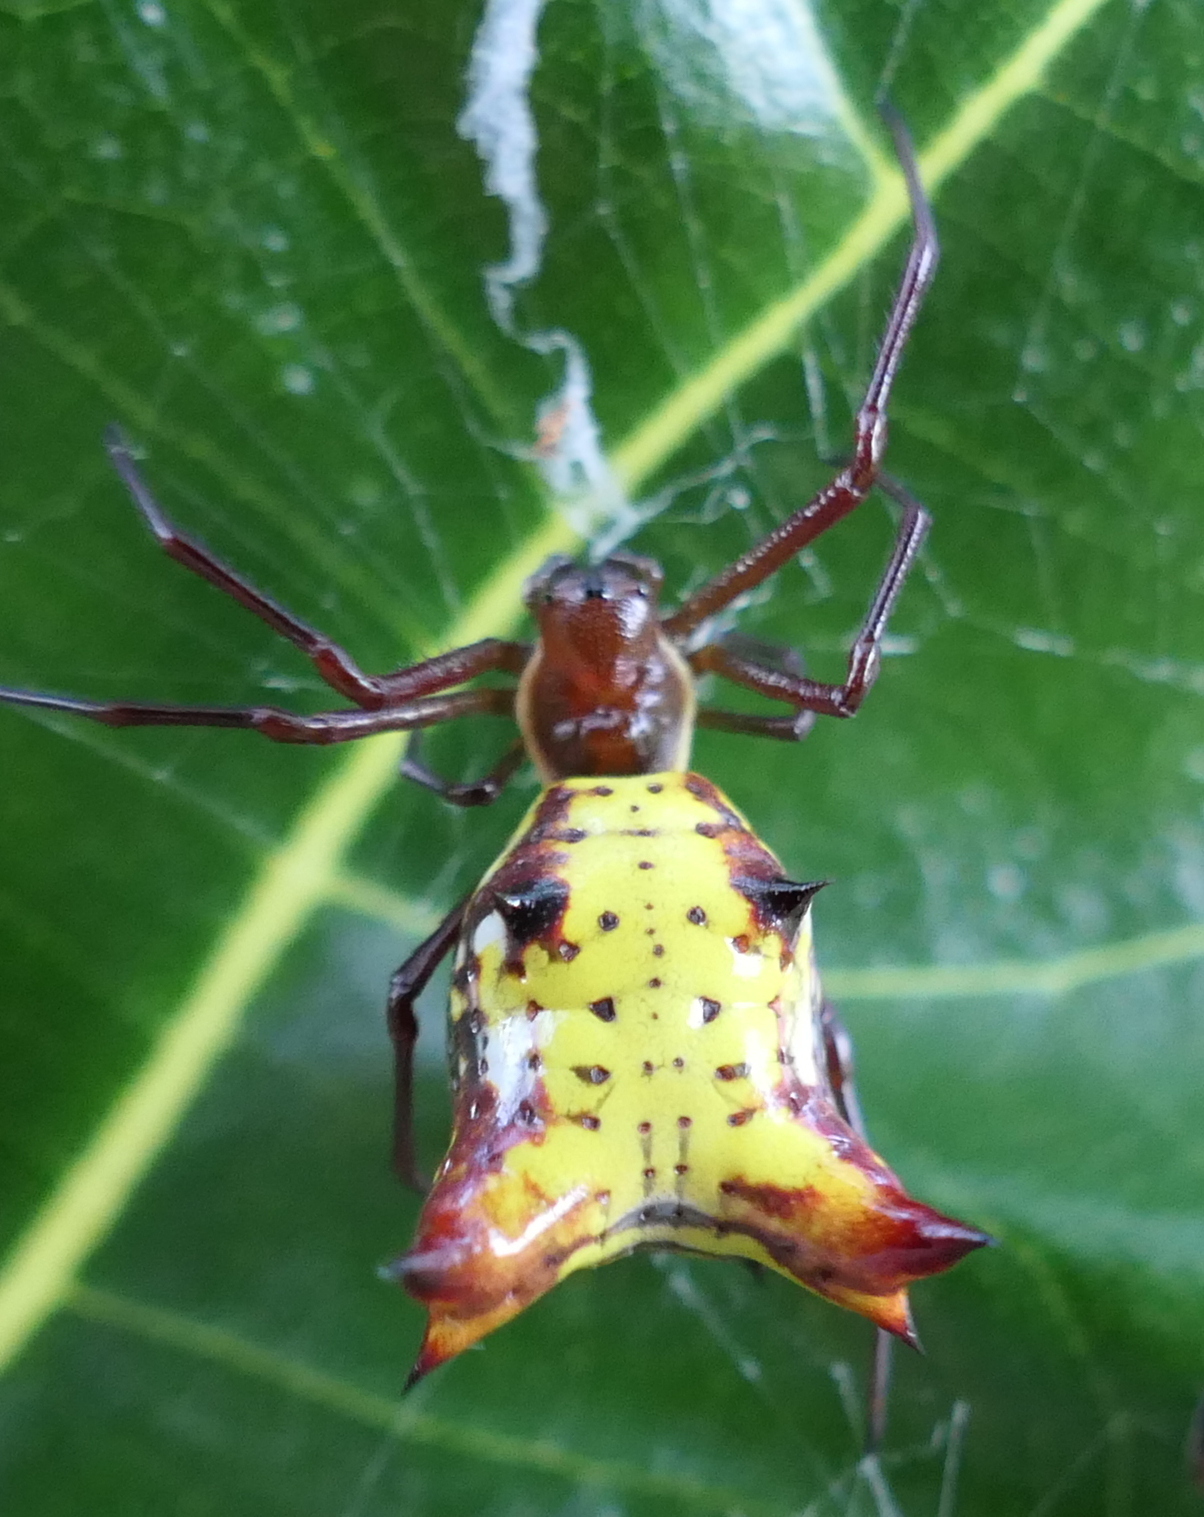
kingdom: Animalia
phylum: Arthropoda
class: Arachnida
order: Araneae
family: Araneidae
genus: Micrathena
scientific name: Micrathena fissispina
